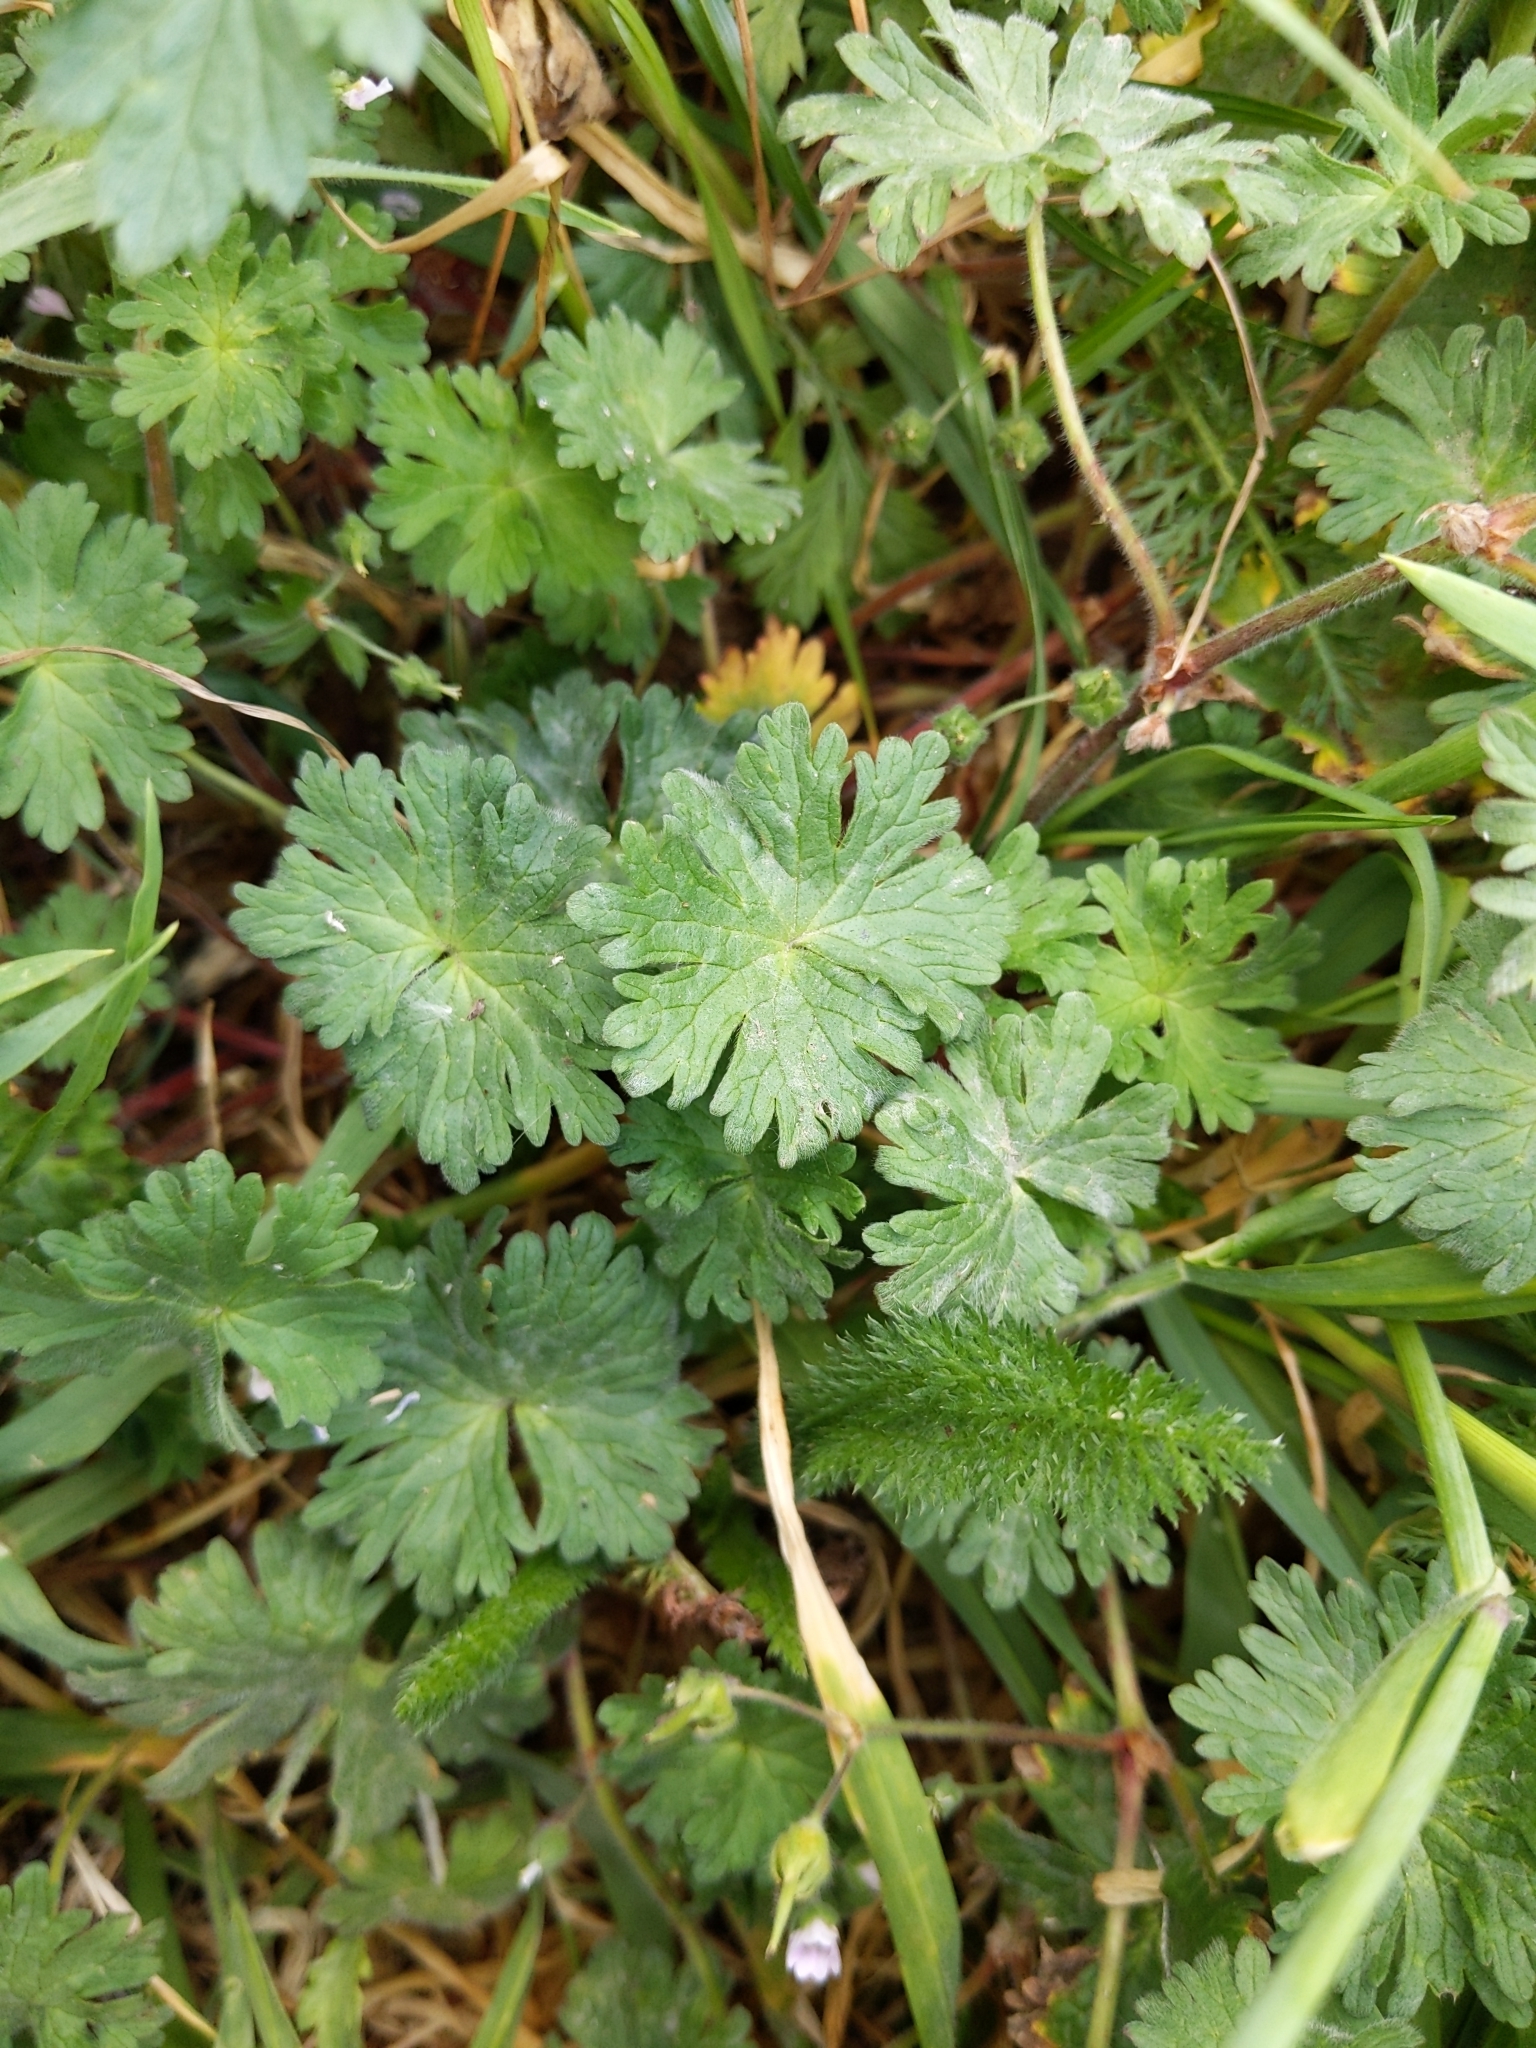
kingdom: Plantae
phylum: Tracheophyta
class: Magnoliopsida
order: Geraniales
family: Geraniaceae
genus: Geranium
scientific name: Geranium molle
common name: Dove's-foot crane's-bill
